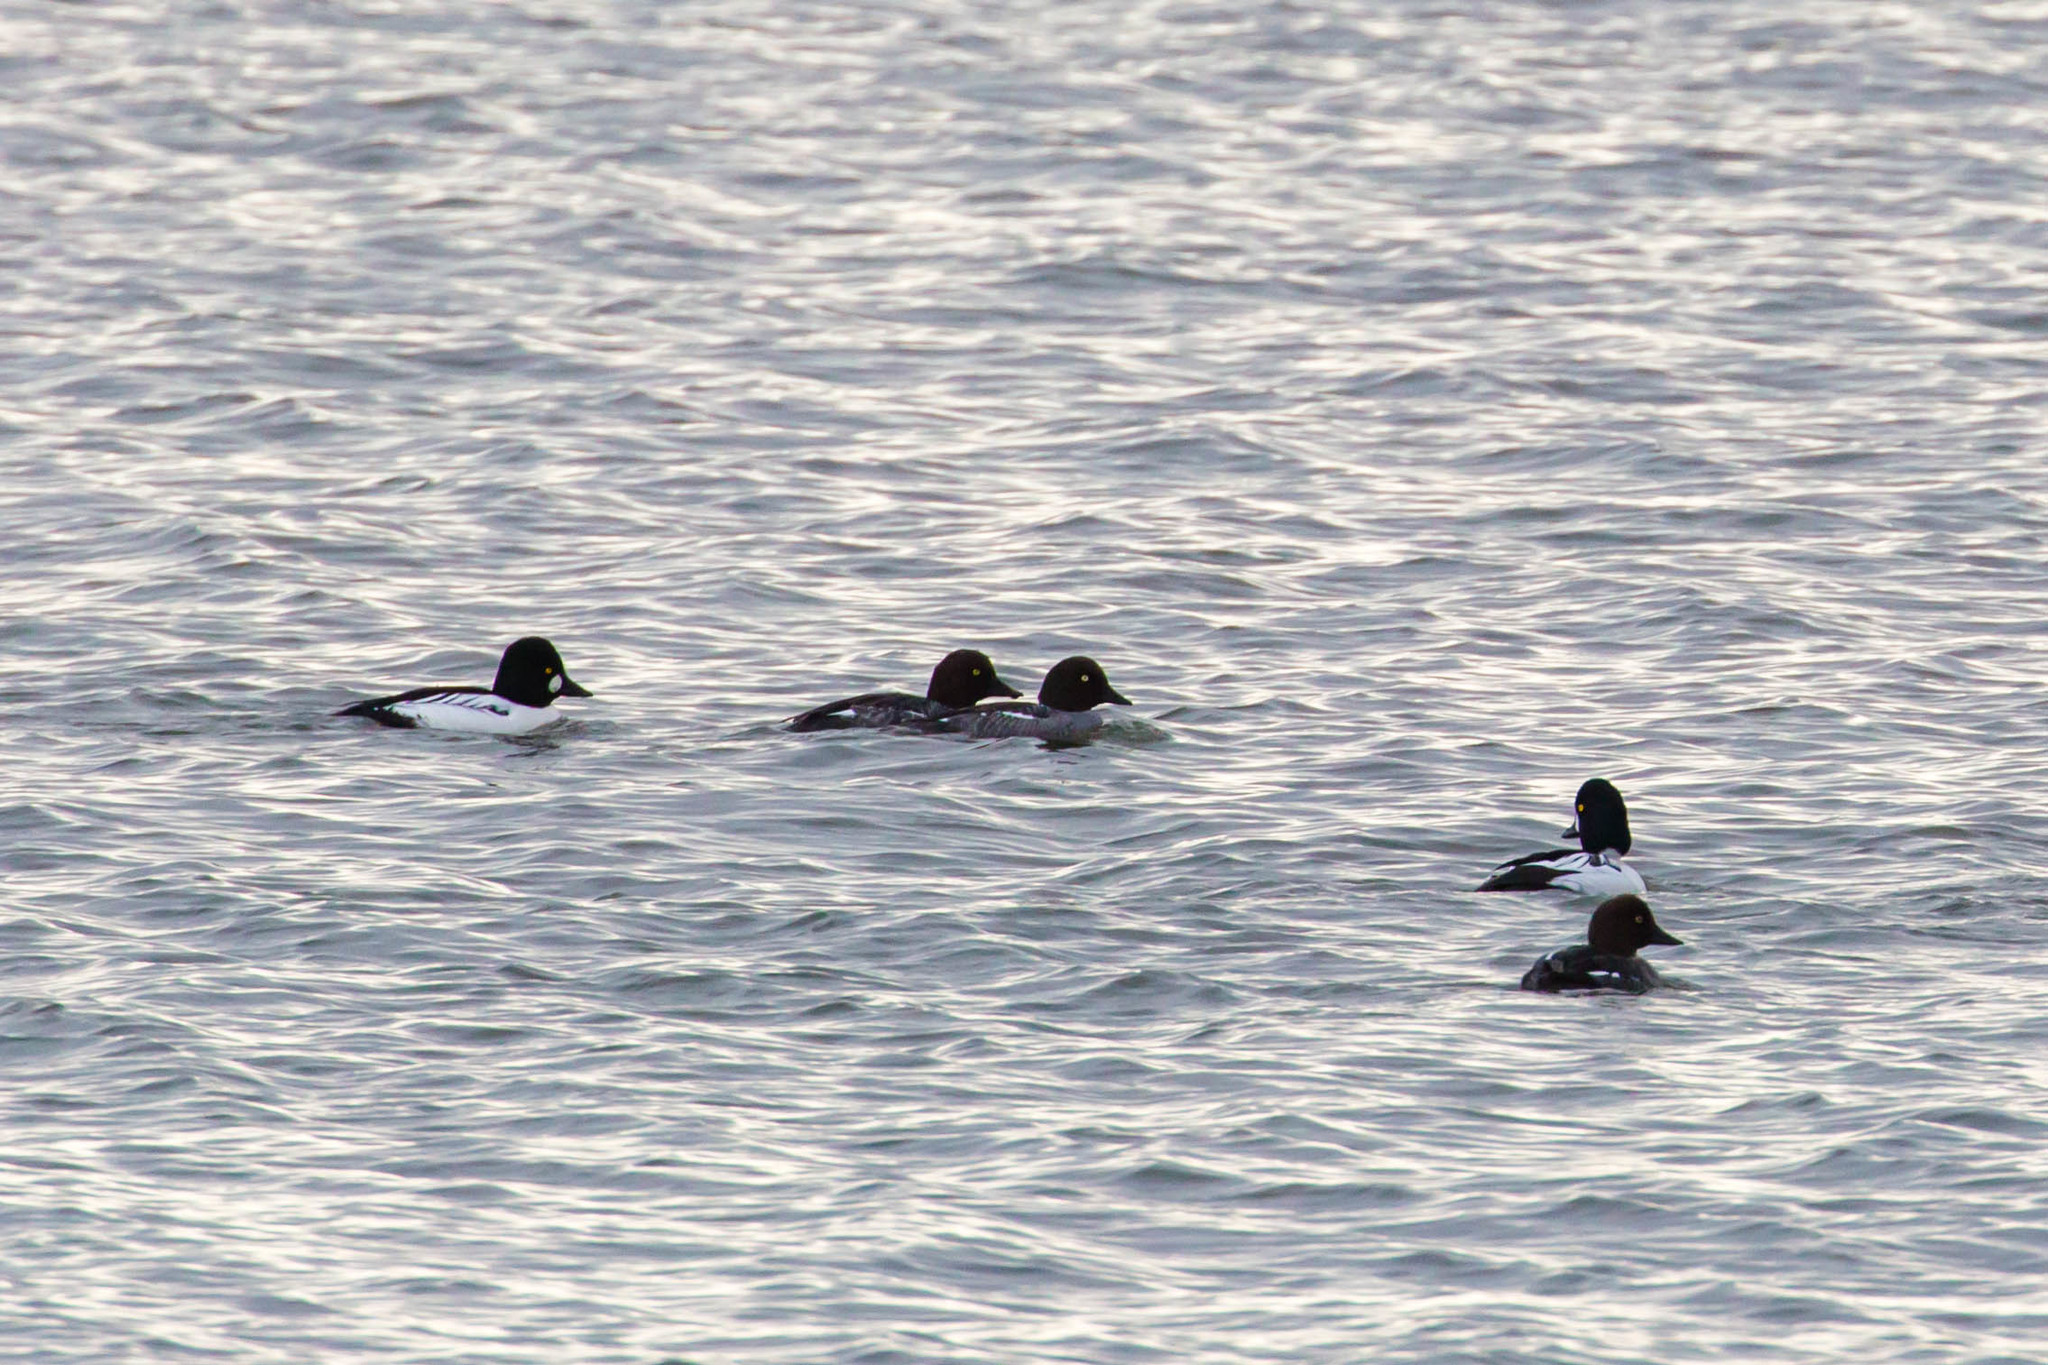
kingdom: Animalia
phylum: Chordata
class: Aves
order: Anseriformes
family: Anatidae
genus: Bucephala
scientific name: Bucephala clangula
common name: Common goldeneye
